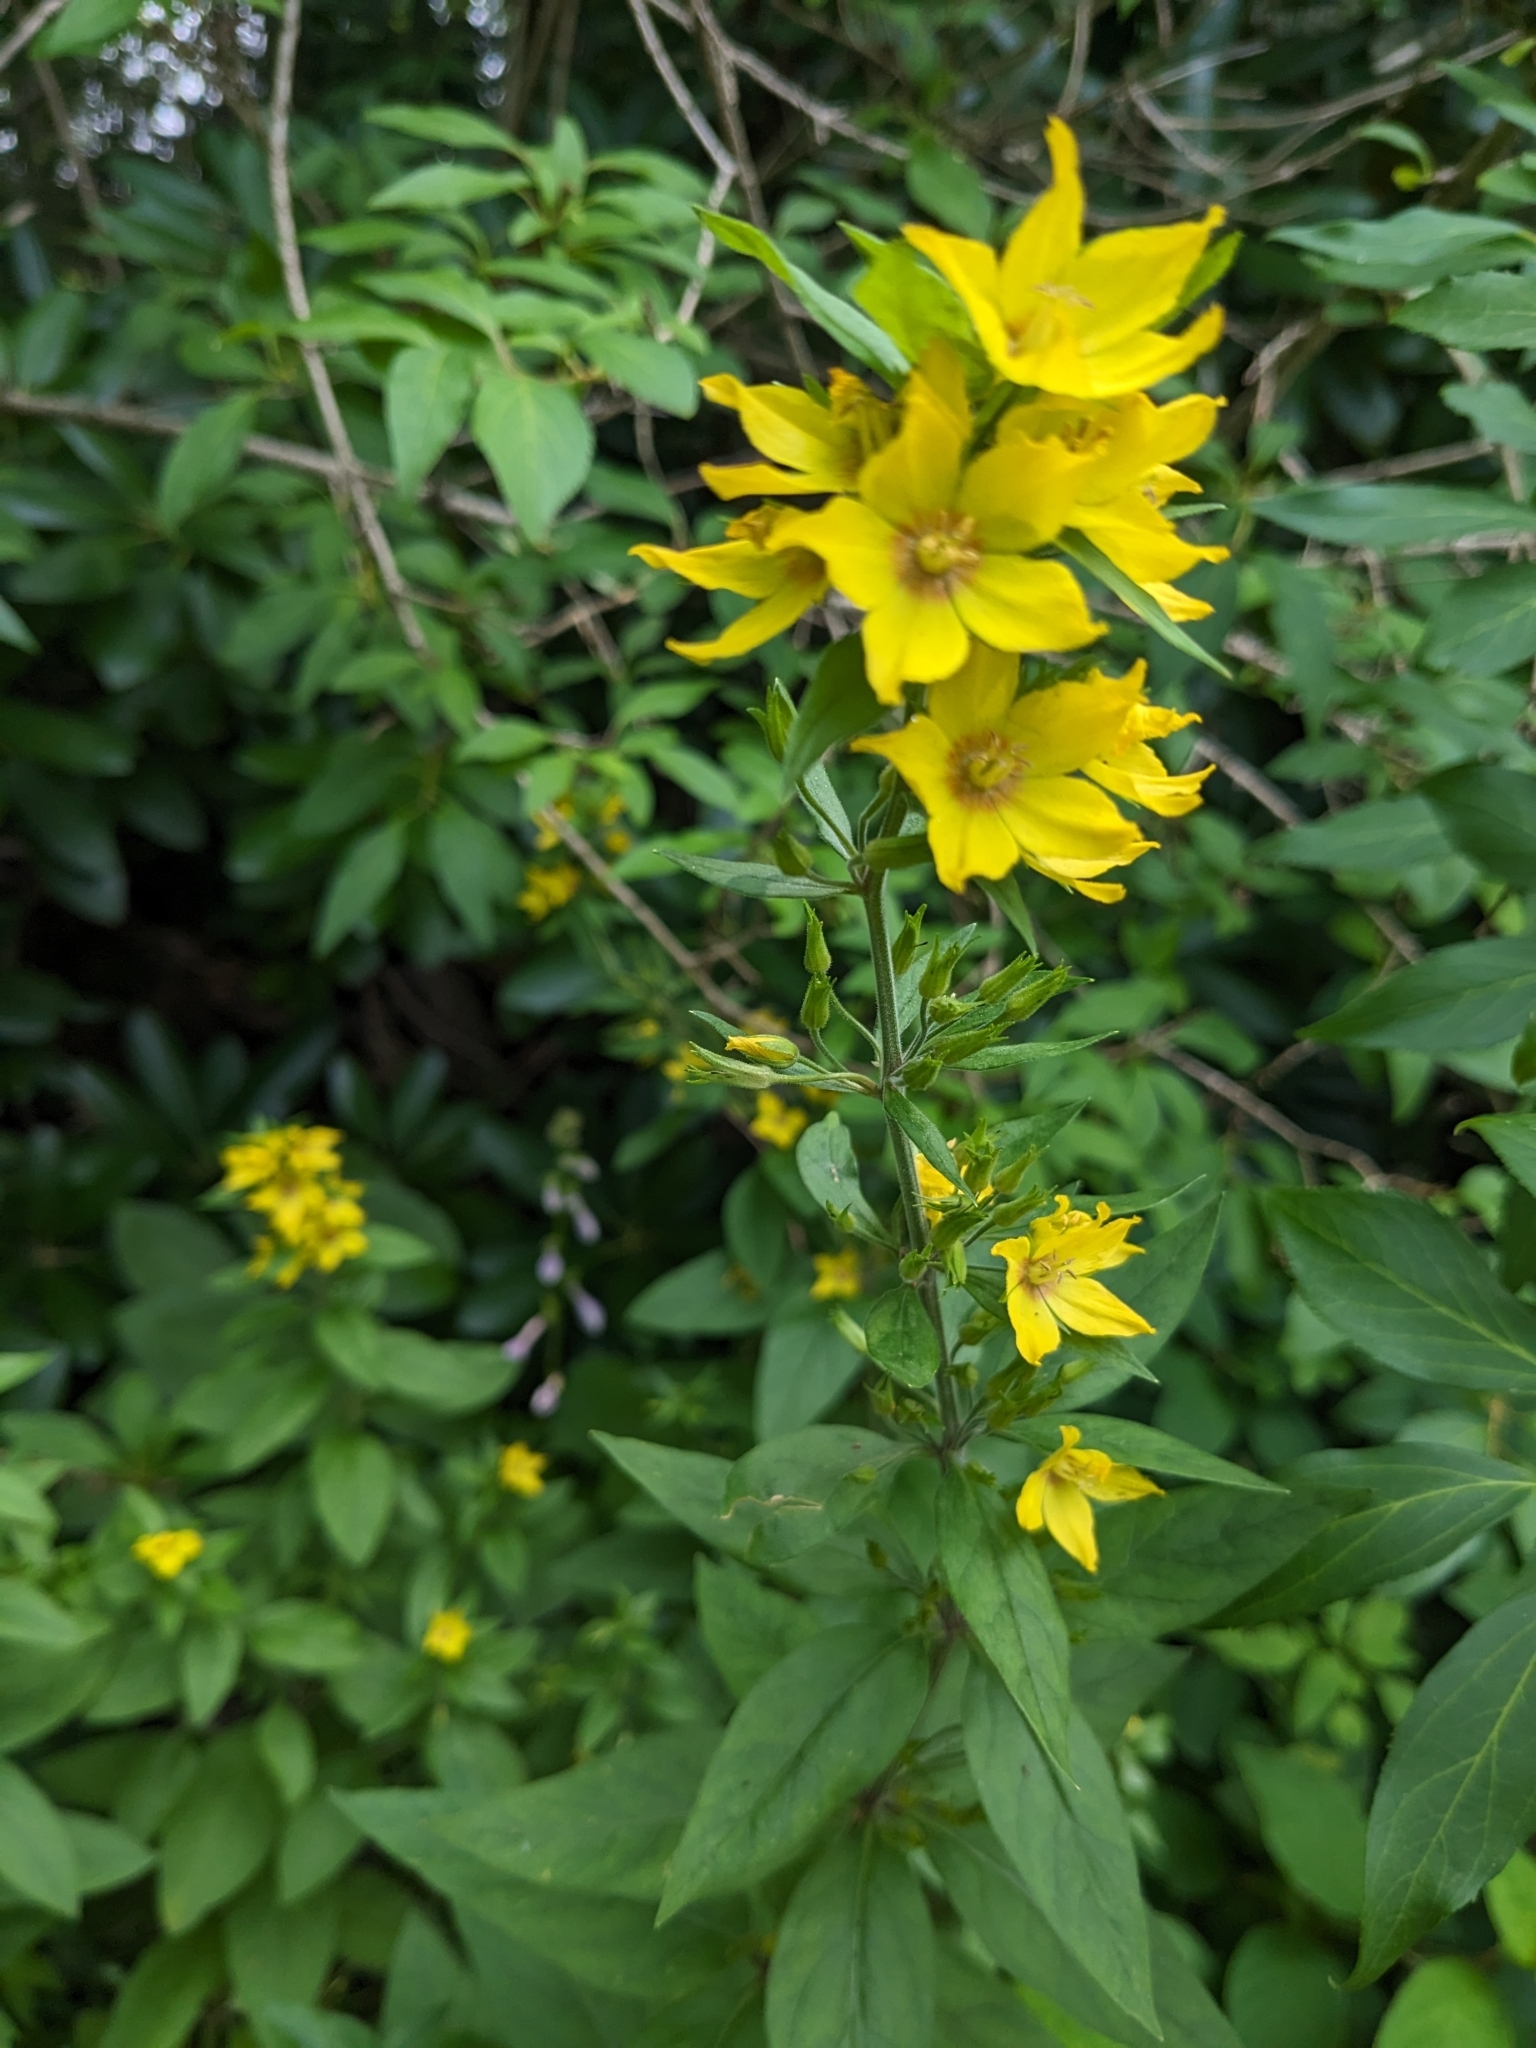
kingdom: Plantae
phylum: Tracheophyta
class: Magnoliopsida
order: Ericales
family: Primulaceae
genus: Lysimachia
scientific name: Lysimachia punctata
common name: Dotted loosestrife
